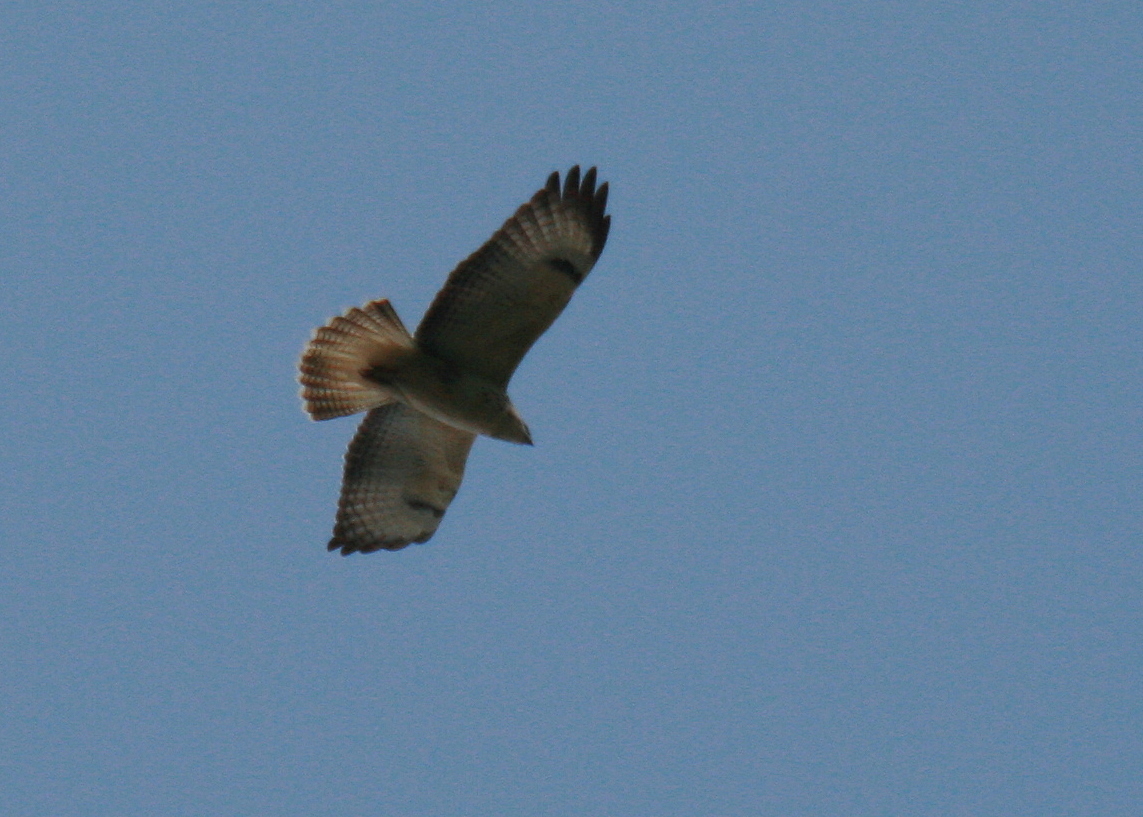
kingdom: Animalia
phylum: Chordata
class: Aves
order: Accipitriformes
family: Accipitridae
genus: Buteo
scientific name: Buteo buteo
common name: Common buzzard
